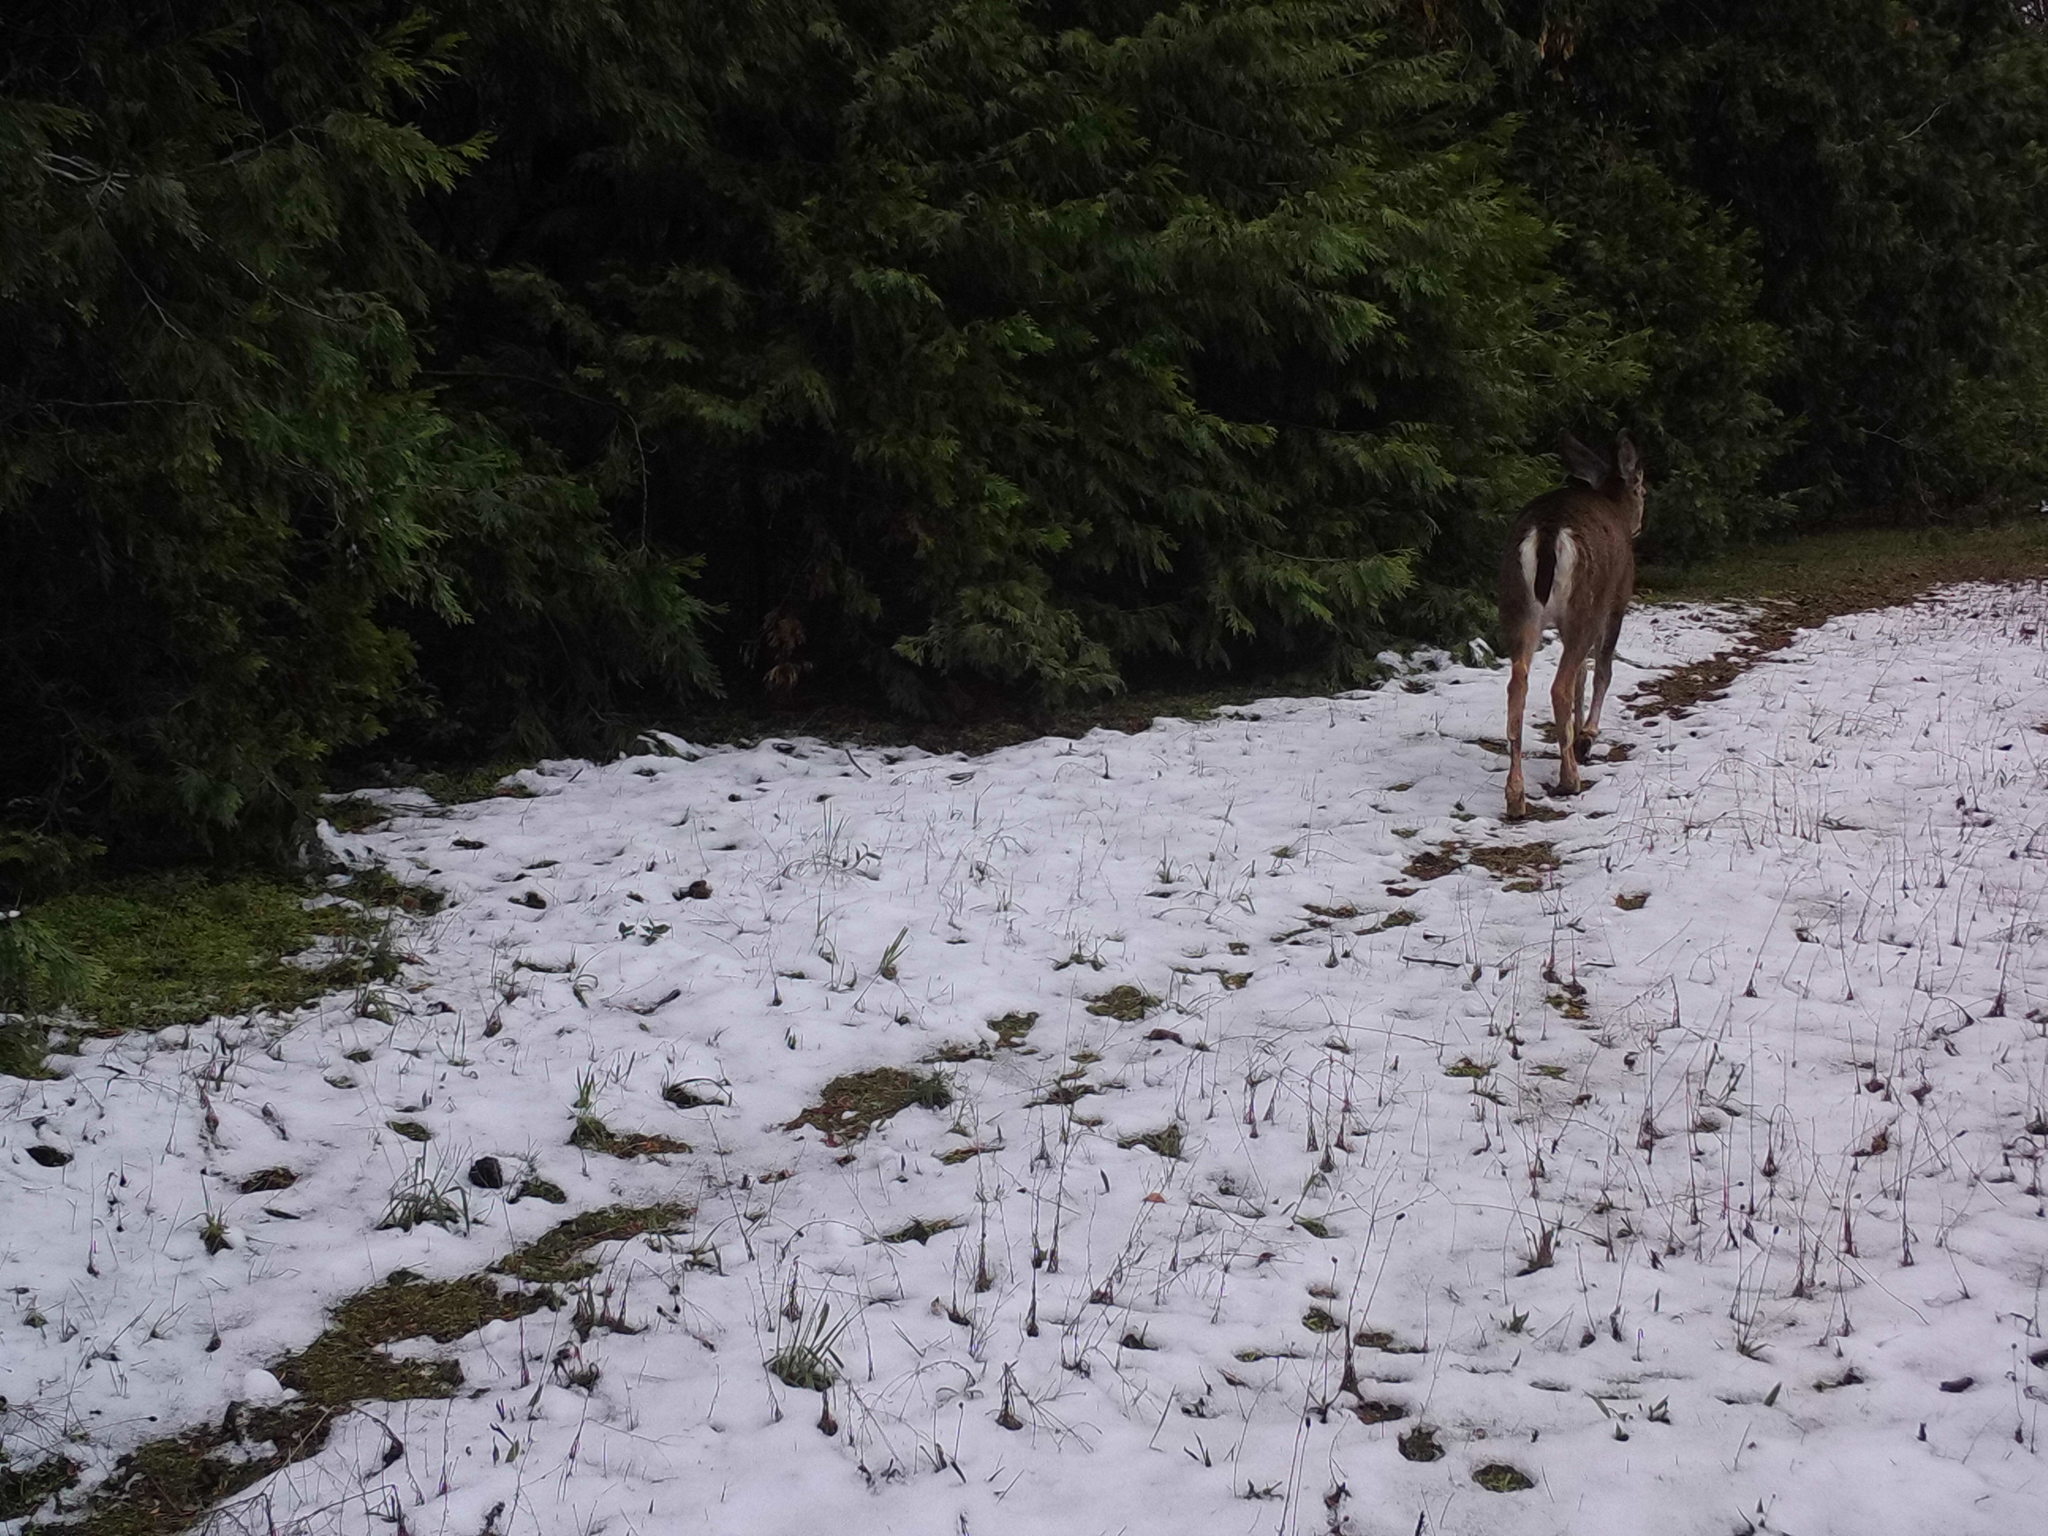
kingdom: Animalia
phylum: Chordata
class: Mammalia
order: Artiodactyla
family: Cervidae
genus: Odocoileus
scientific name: Odocoileus hemionus
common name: Mule deer
